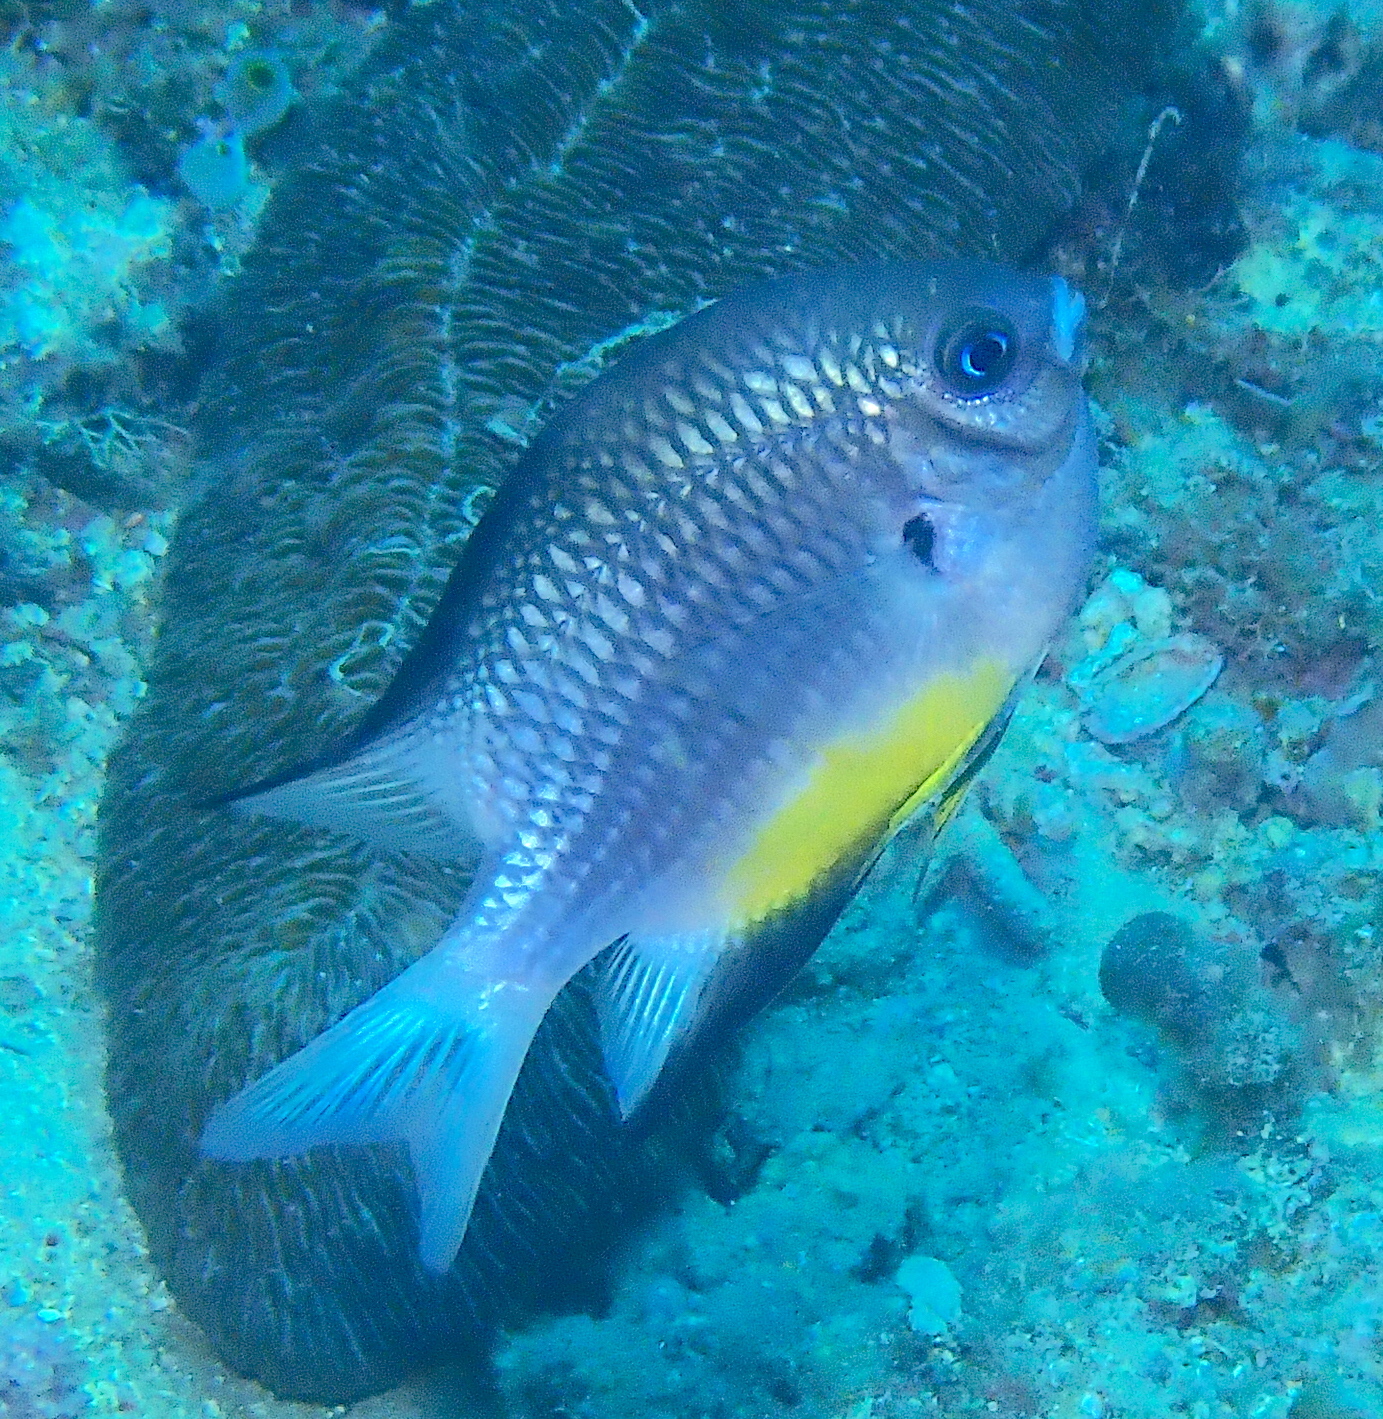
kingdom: Animalia
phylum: Chordata
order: Perciformes
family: Pomacentridae
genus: Amblyglyphidodon
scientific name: Amblyglyphidodon leucogaster
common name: White-belly damsel
